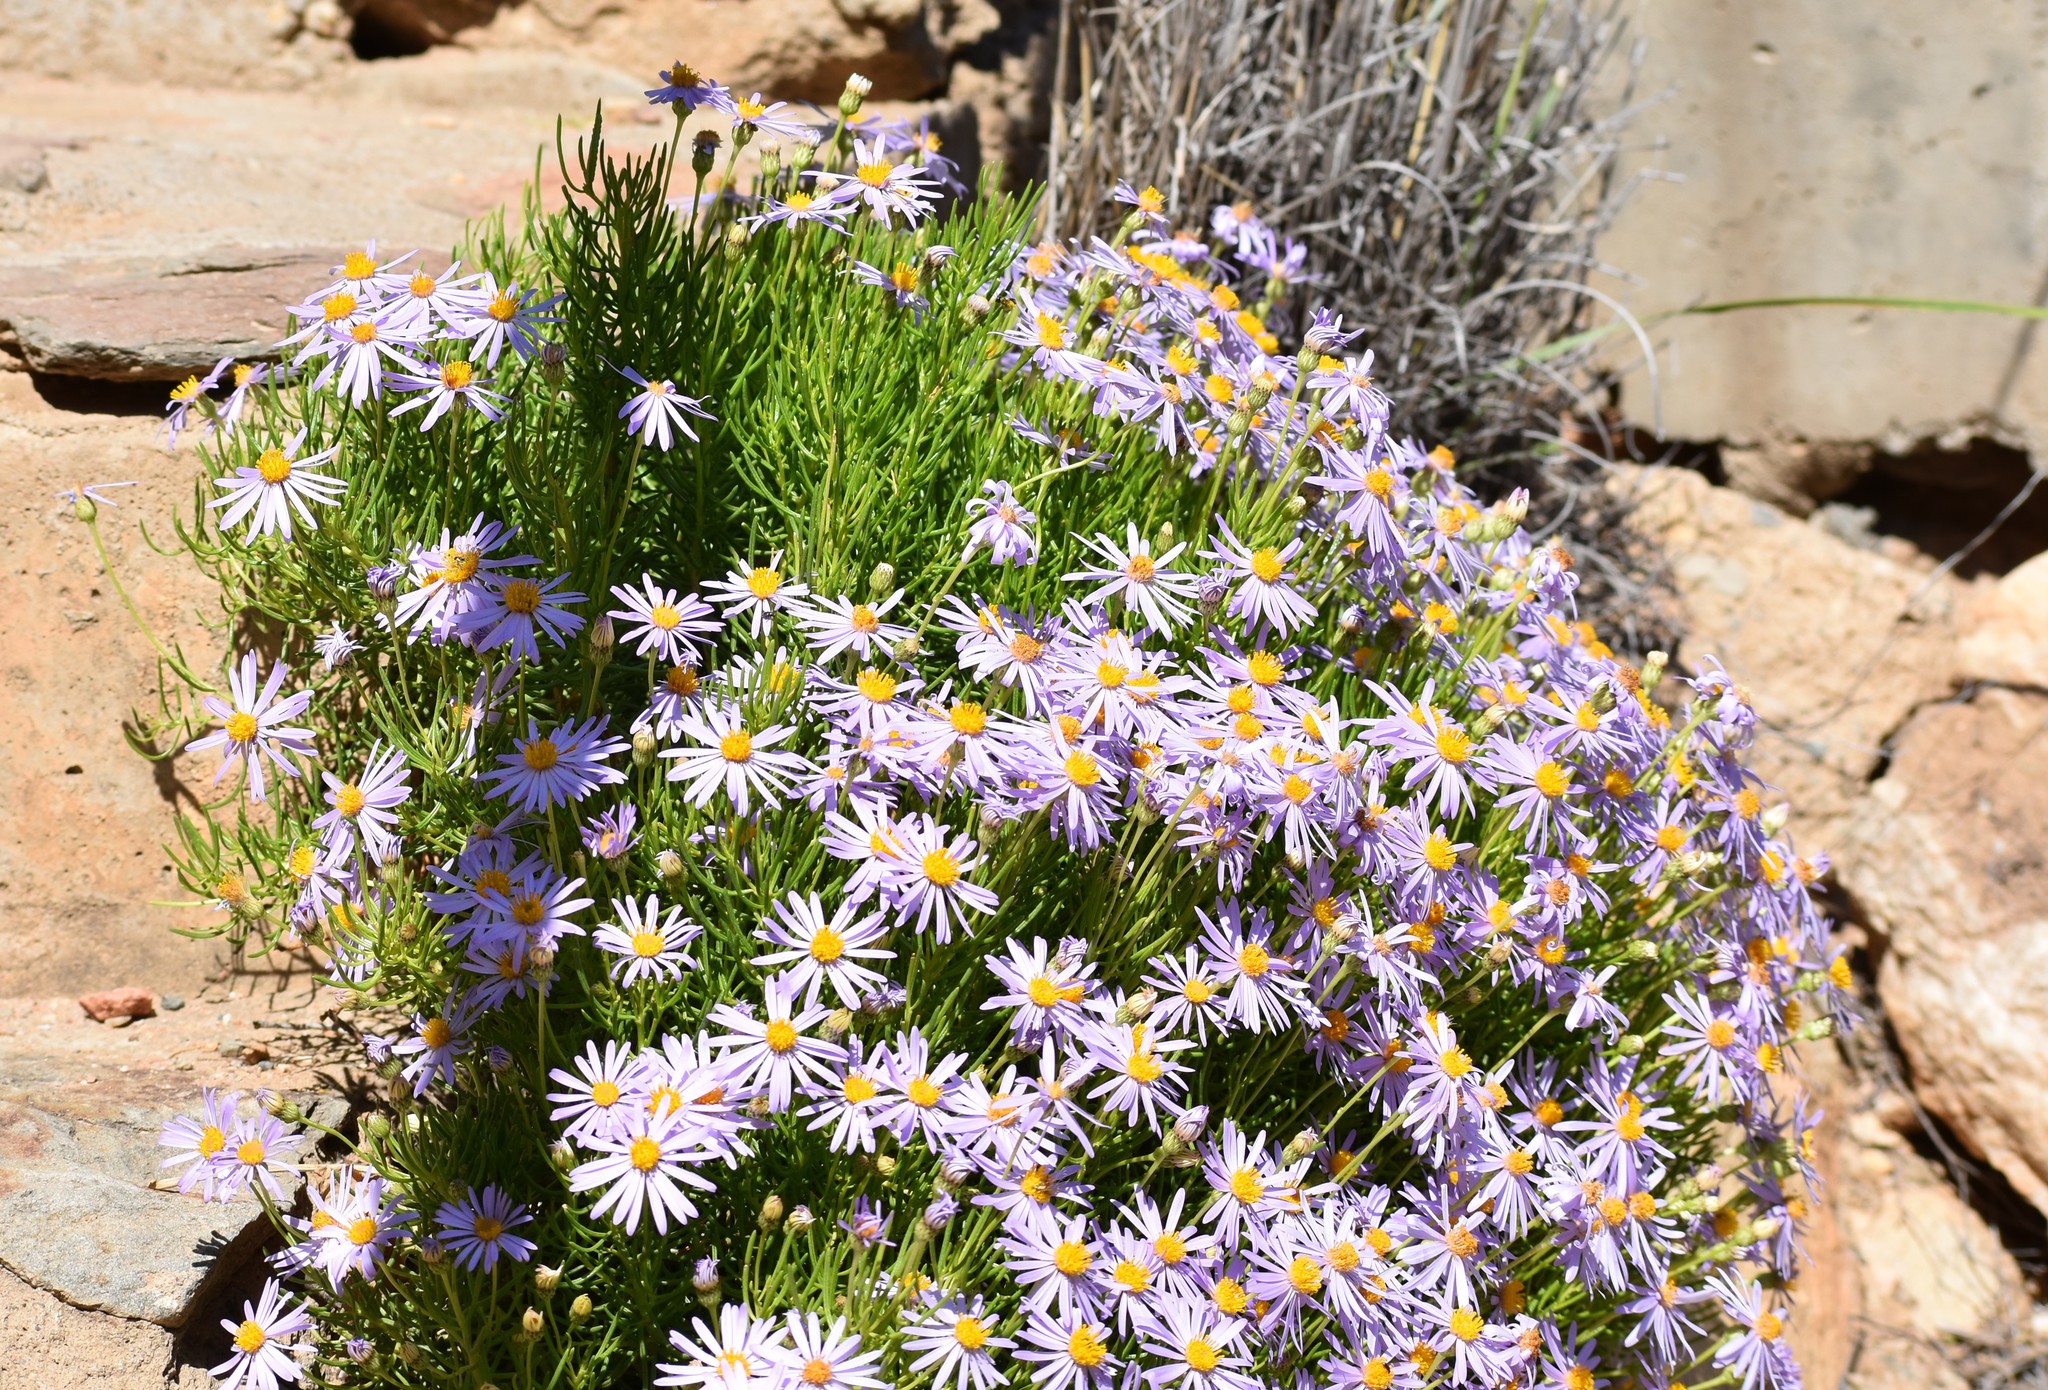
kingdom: Plantae
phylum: Tracheophyta
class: Magnoliopsida
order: Asterales
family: Asteraceae
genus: Felicia
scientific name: Felicia filifolia
